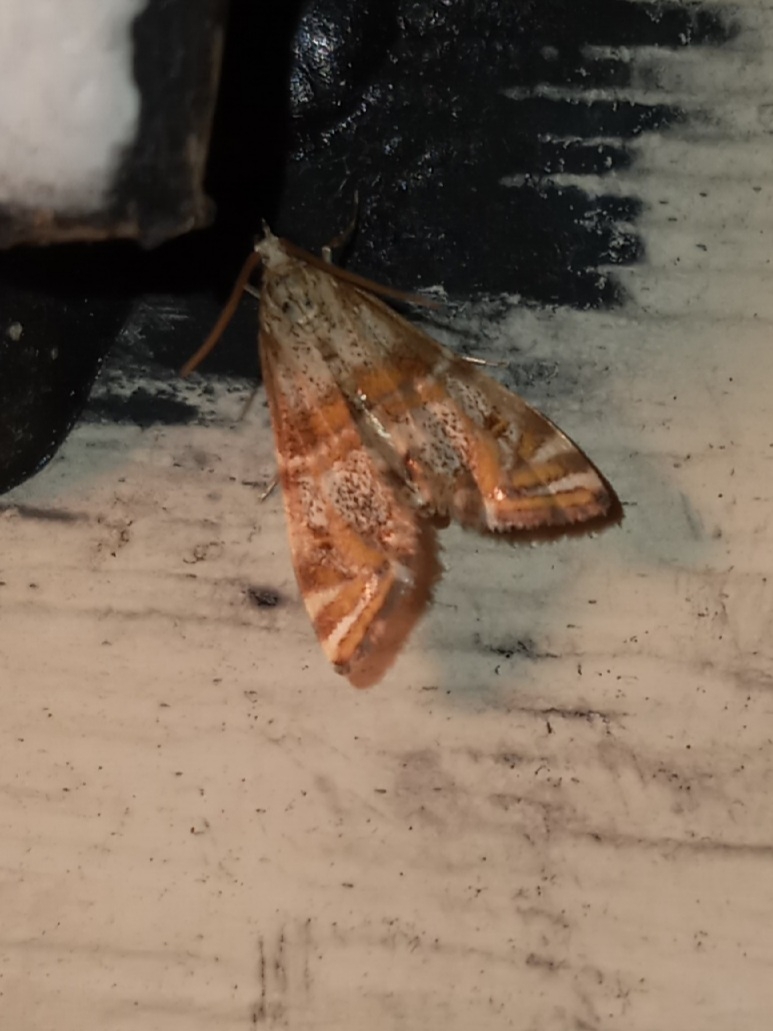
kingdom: Animalia
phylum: Arthropoda
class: Insecta
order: Lepidoptera
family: Crambidae
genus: Petrophila
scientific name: Petrophila bifascialis
